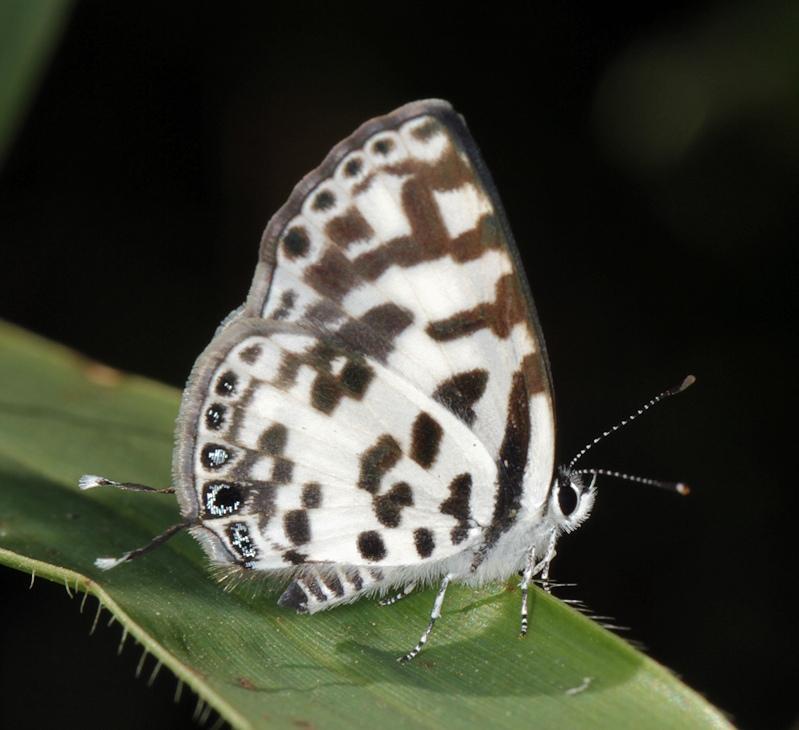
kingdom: Animalia
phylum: Arthropoda
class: Insecta
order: Lepidoptera
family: Lycaenidae
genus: Castalius
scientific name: Castalius melaena
